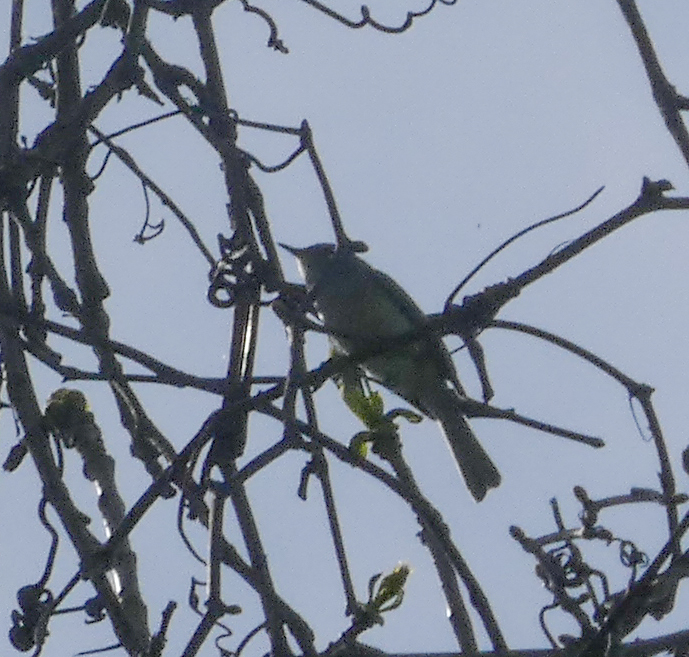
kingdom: Animalia
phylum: Chordata
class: Aves
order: Passeriformes
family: Polioptilidae
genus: Polioptila
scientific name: Polioptila caerulea
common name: Blue-gray gnatcatcher
